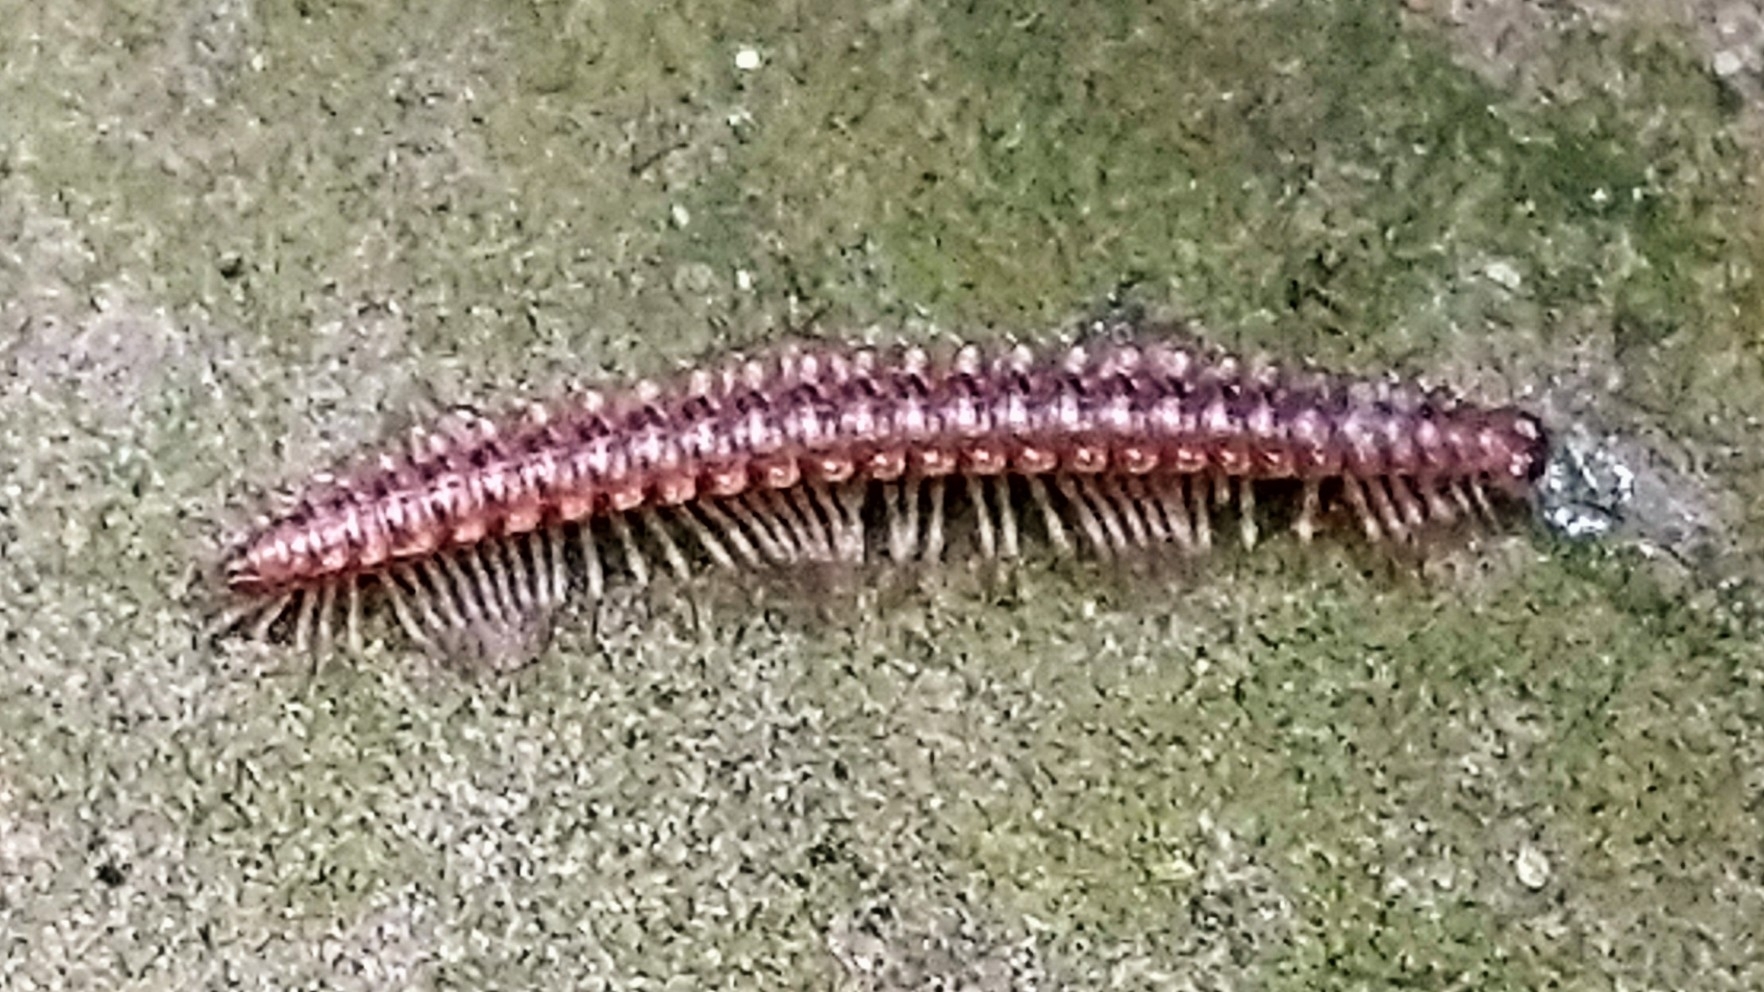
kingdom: Animalia
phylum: Arthropoda
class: Diplopoda
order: Chordeumatida
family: Craspedosomatidae
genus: Nanogona
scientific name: Nanogona polydesmoides
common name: Eyed flat-backed millipede
